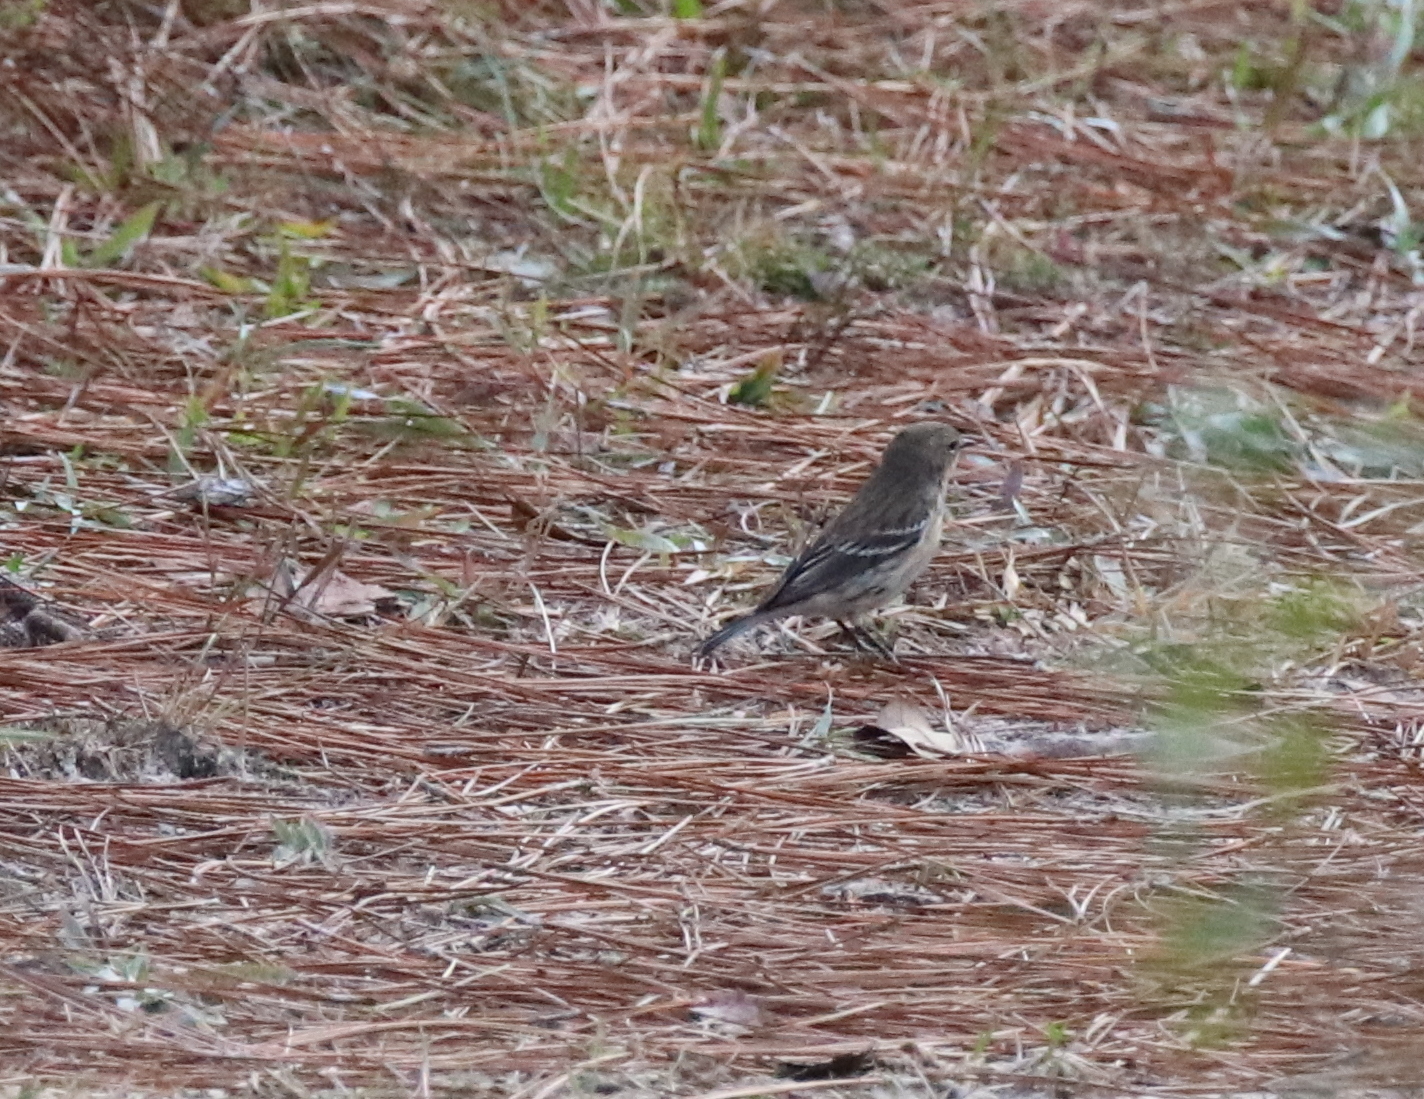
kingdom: Animalia
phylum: Chordata
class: Aves
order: Passeriformes
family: Parulidae
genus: Setophaga
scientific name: Setophaga coronata
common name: Myrtle warbler
